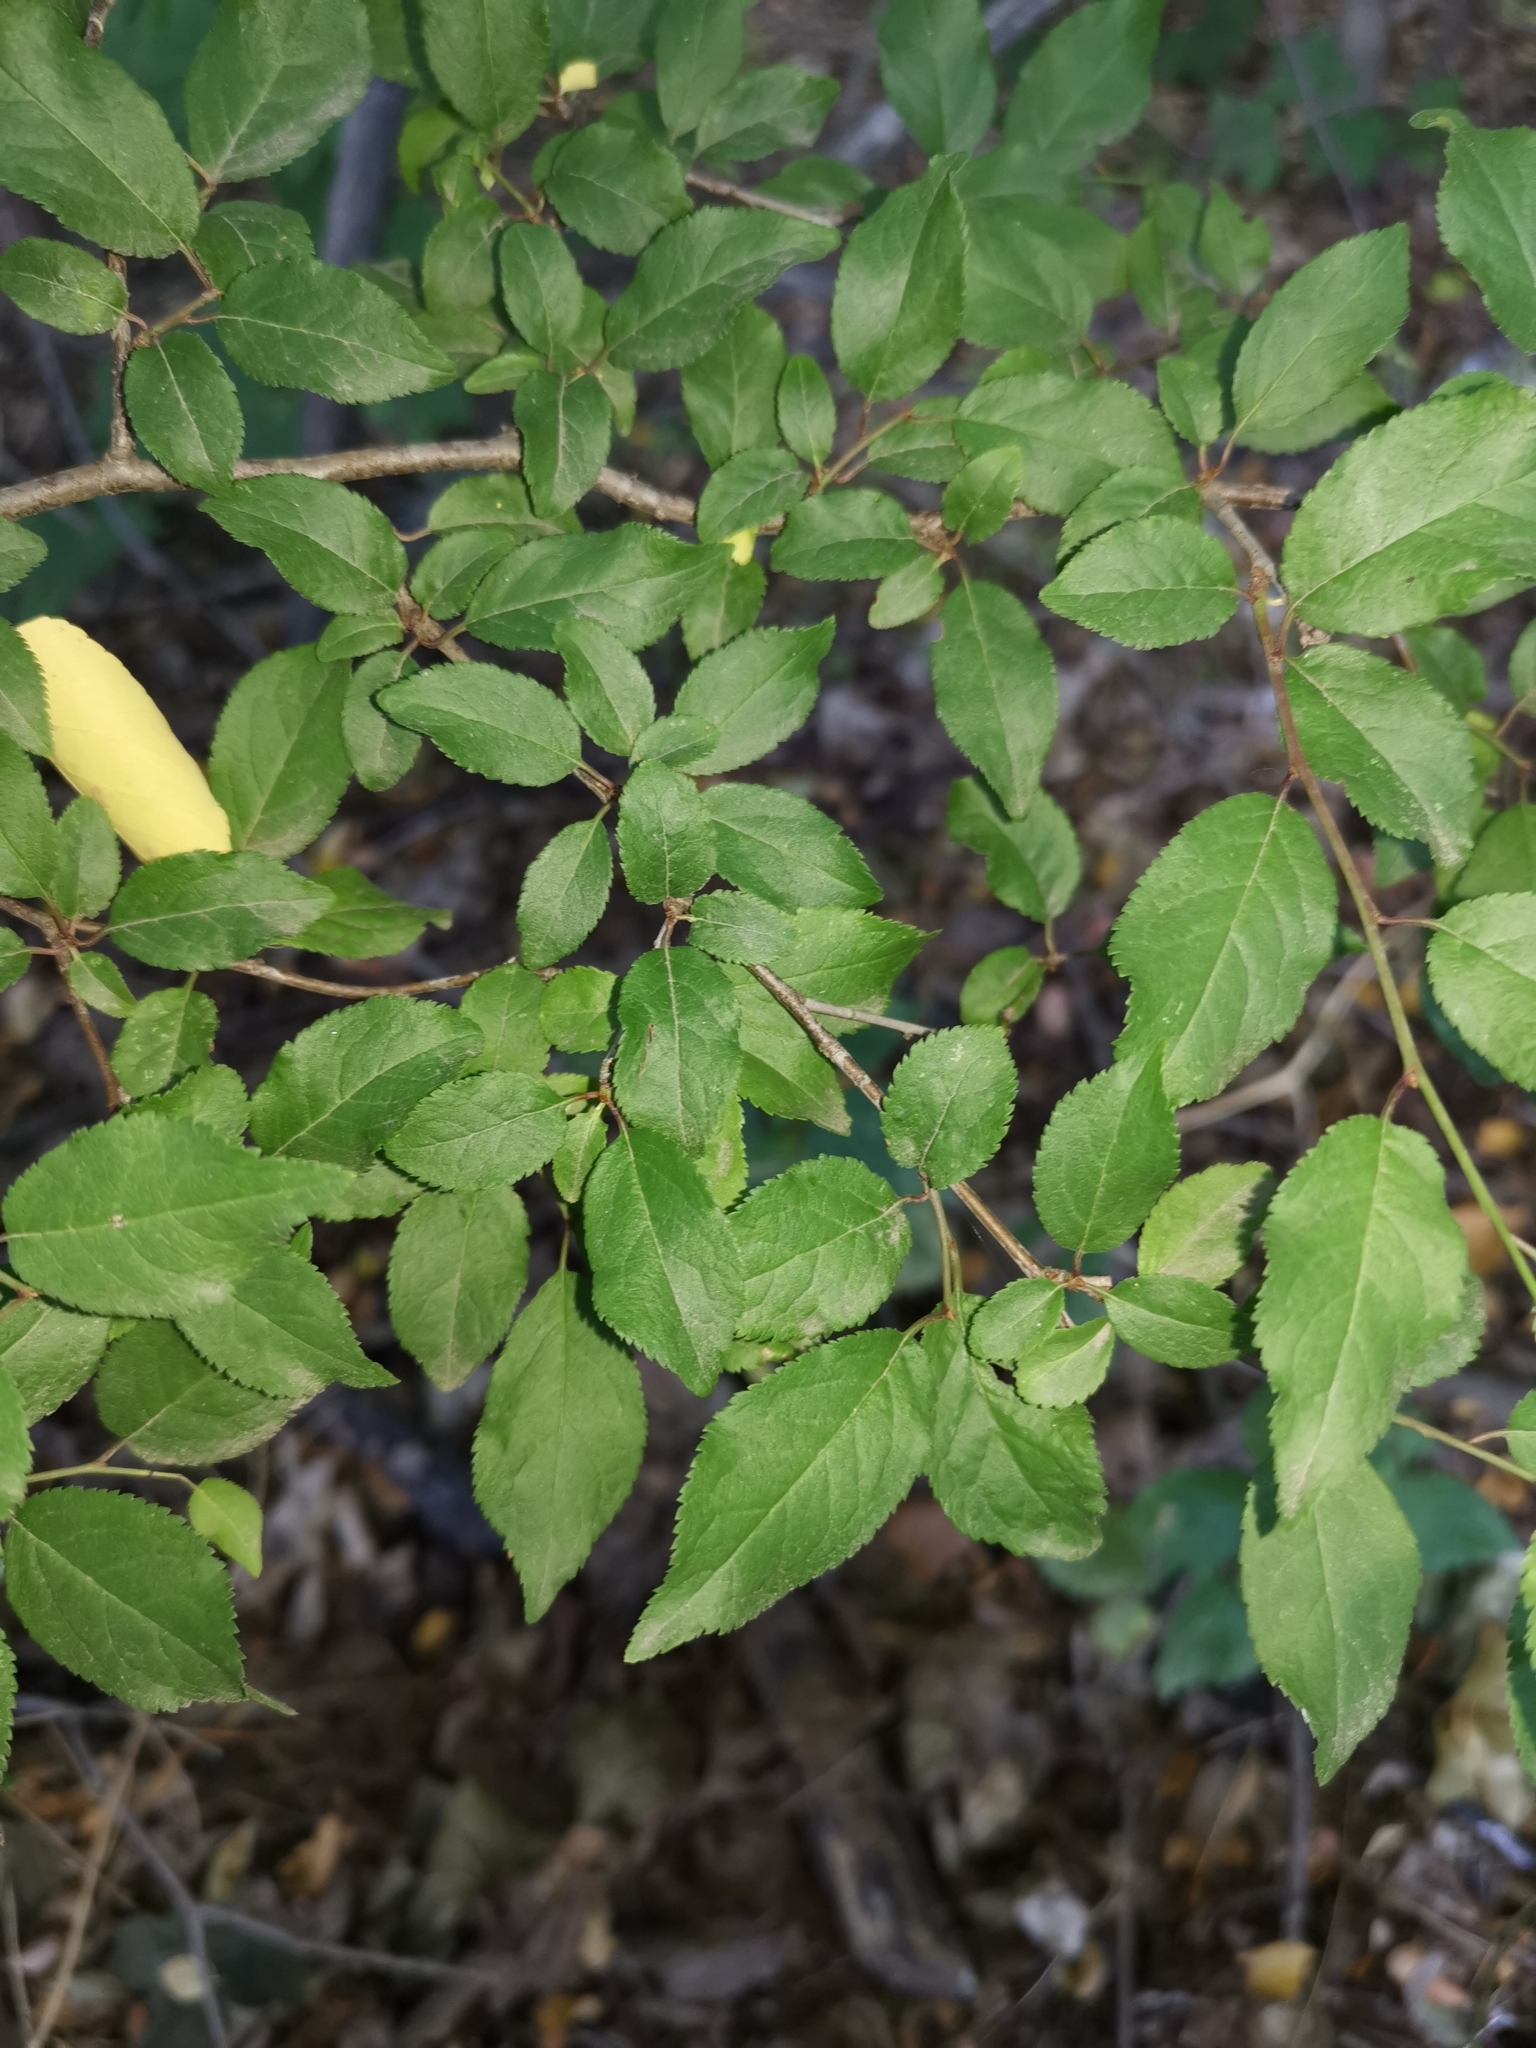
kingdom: Plantae
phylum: Tracheophyta
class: Magnoliopsida
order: Rosales
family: Rosaceae
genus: Prunus
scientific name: Prunus cerasifera
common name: Cherry plum
